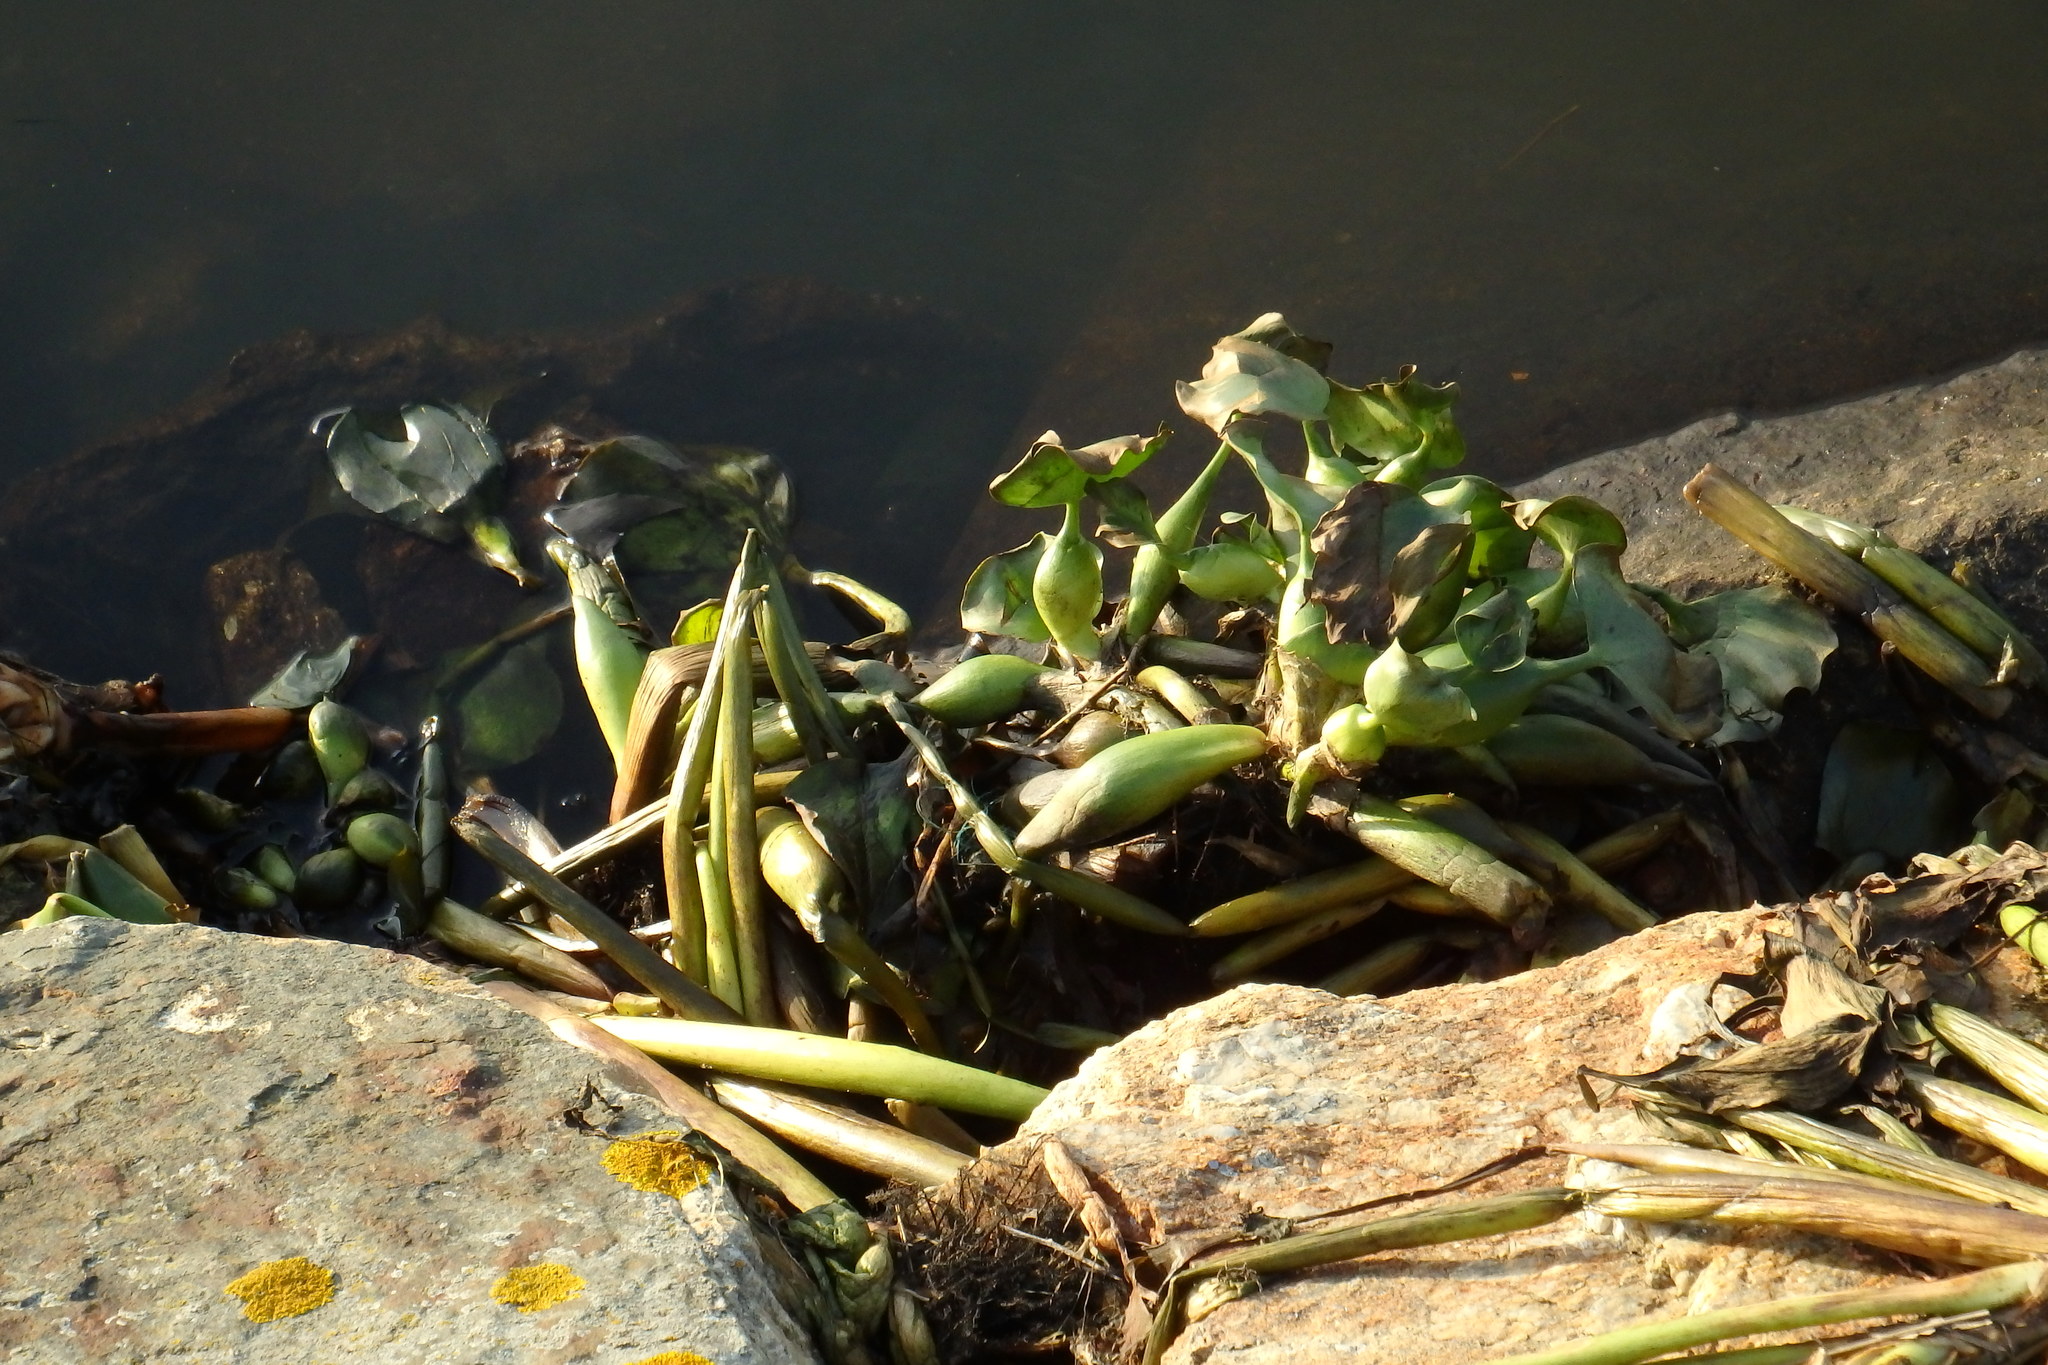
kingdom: Plantae
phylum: Tracheophyta
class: Liliopsida
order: Commelinales
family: Pontederiaceae
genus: Pontederia
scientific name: Pontederia crassipes
